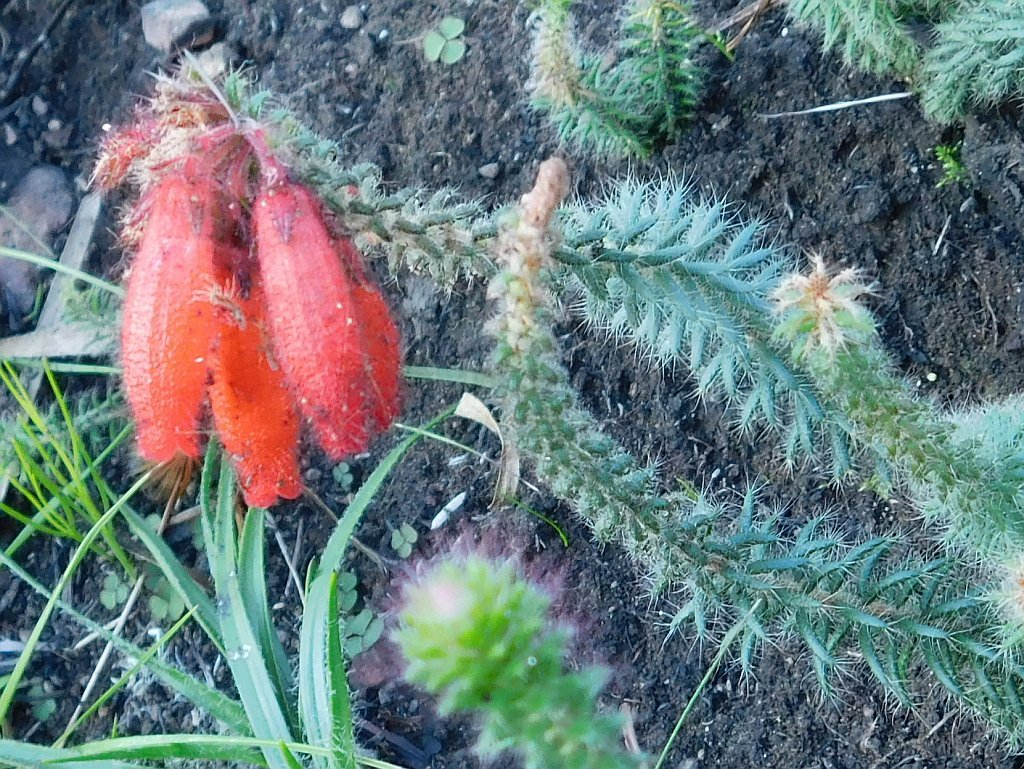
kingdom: Plantae
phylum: Tracheophyta
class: Magnoliopsida
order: Ericales
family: Ericaceae
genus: Erica
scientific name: Erica cerinthoides
